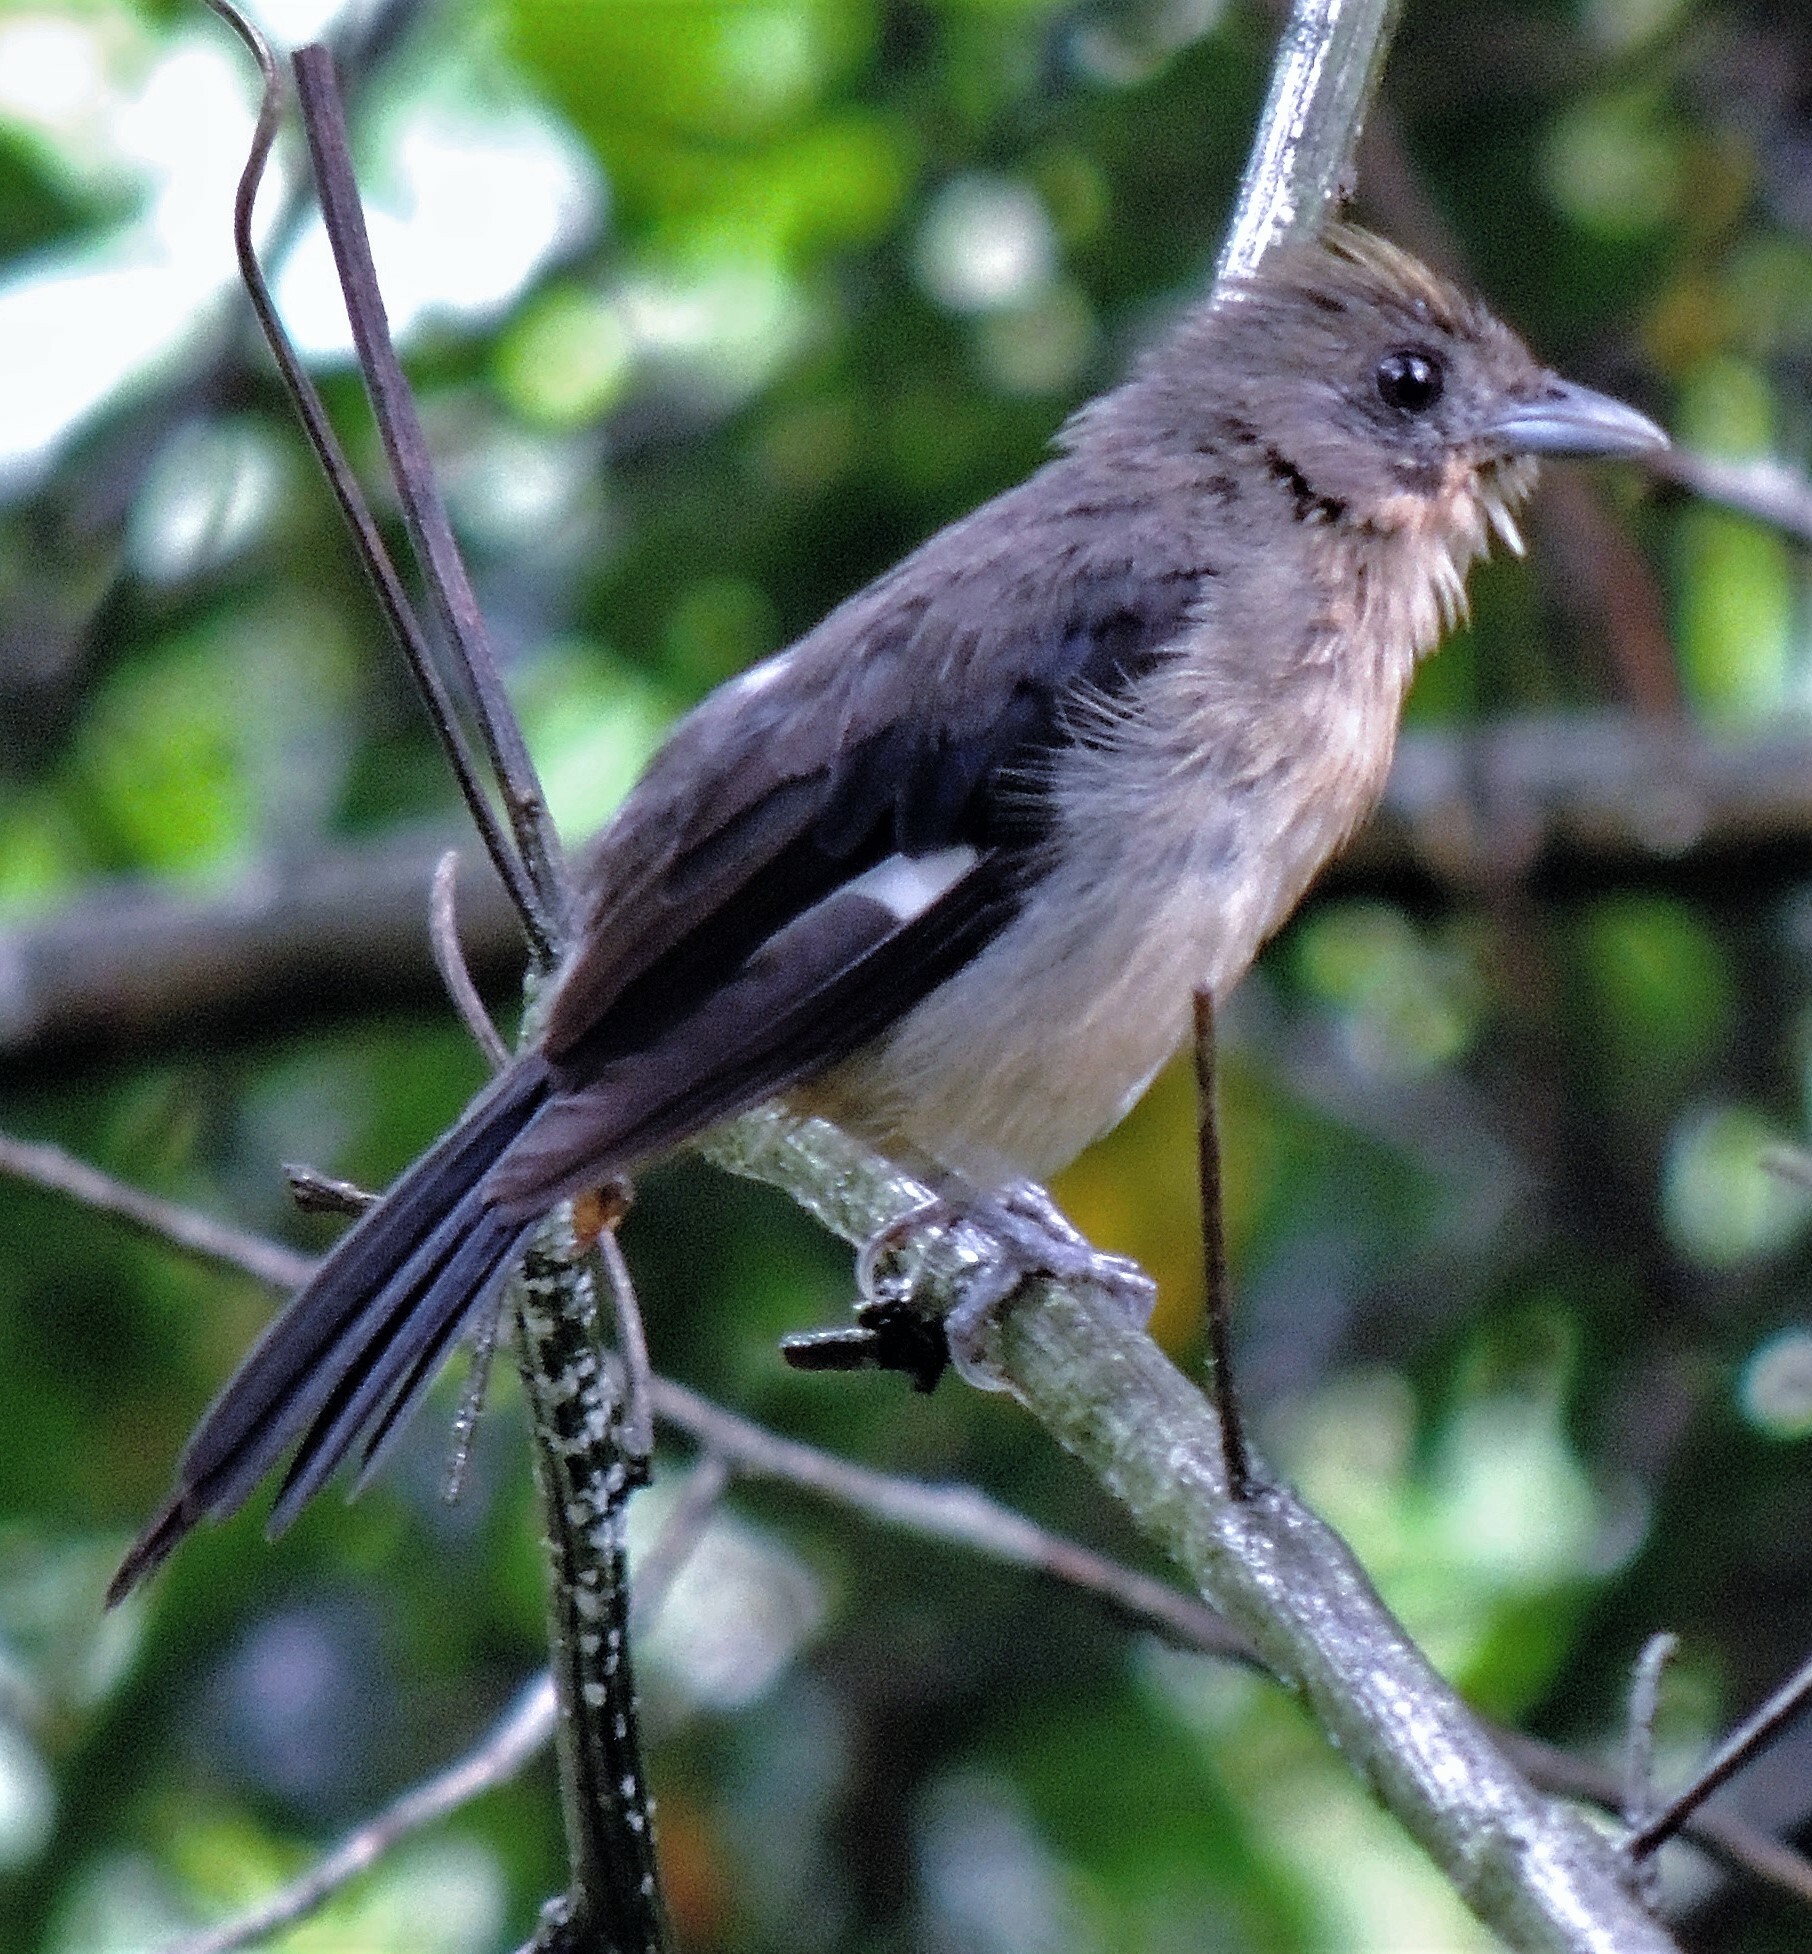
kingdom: Animalia
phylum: Chordata
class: Aves
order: Passeriformes
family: Thraupidae
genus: Trichothraupis
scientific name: Trichothraupis melanops
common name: Black-goggled tanager
